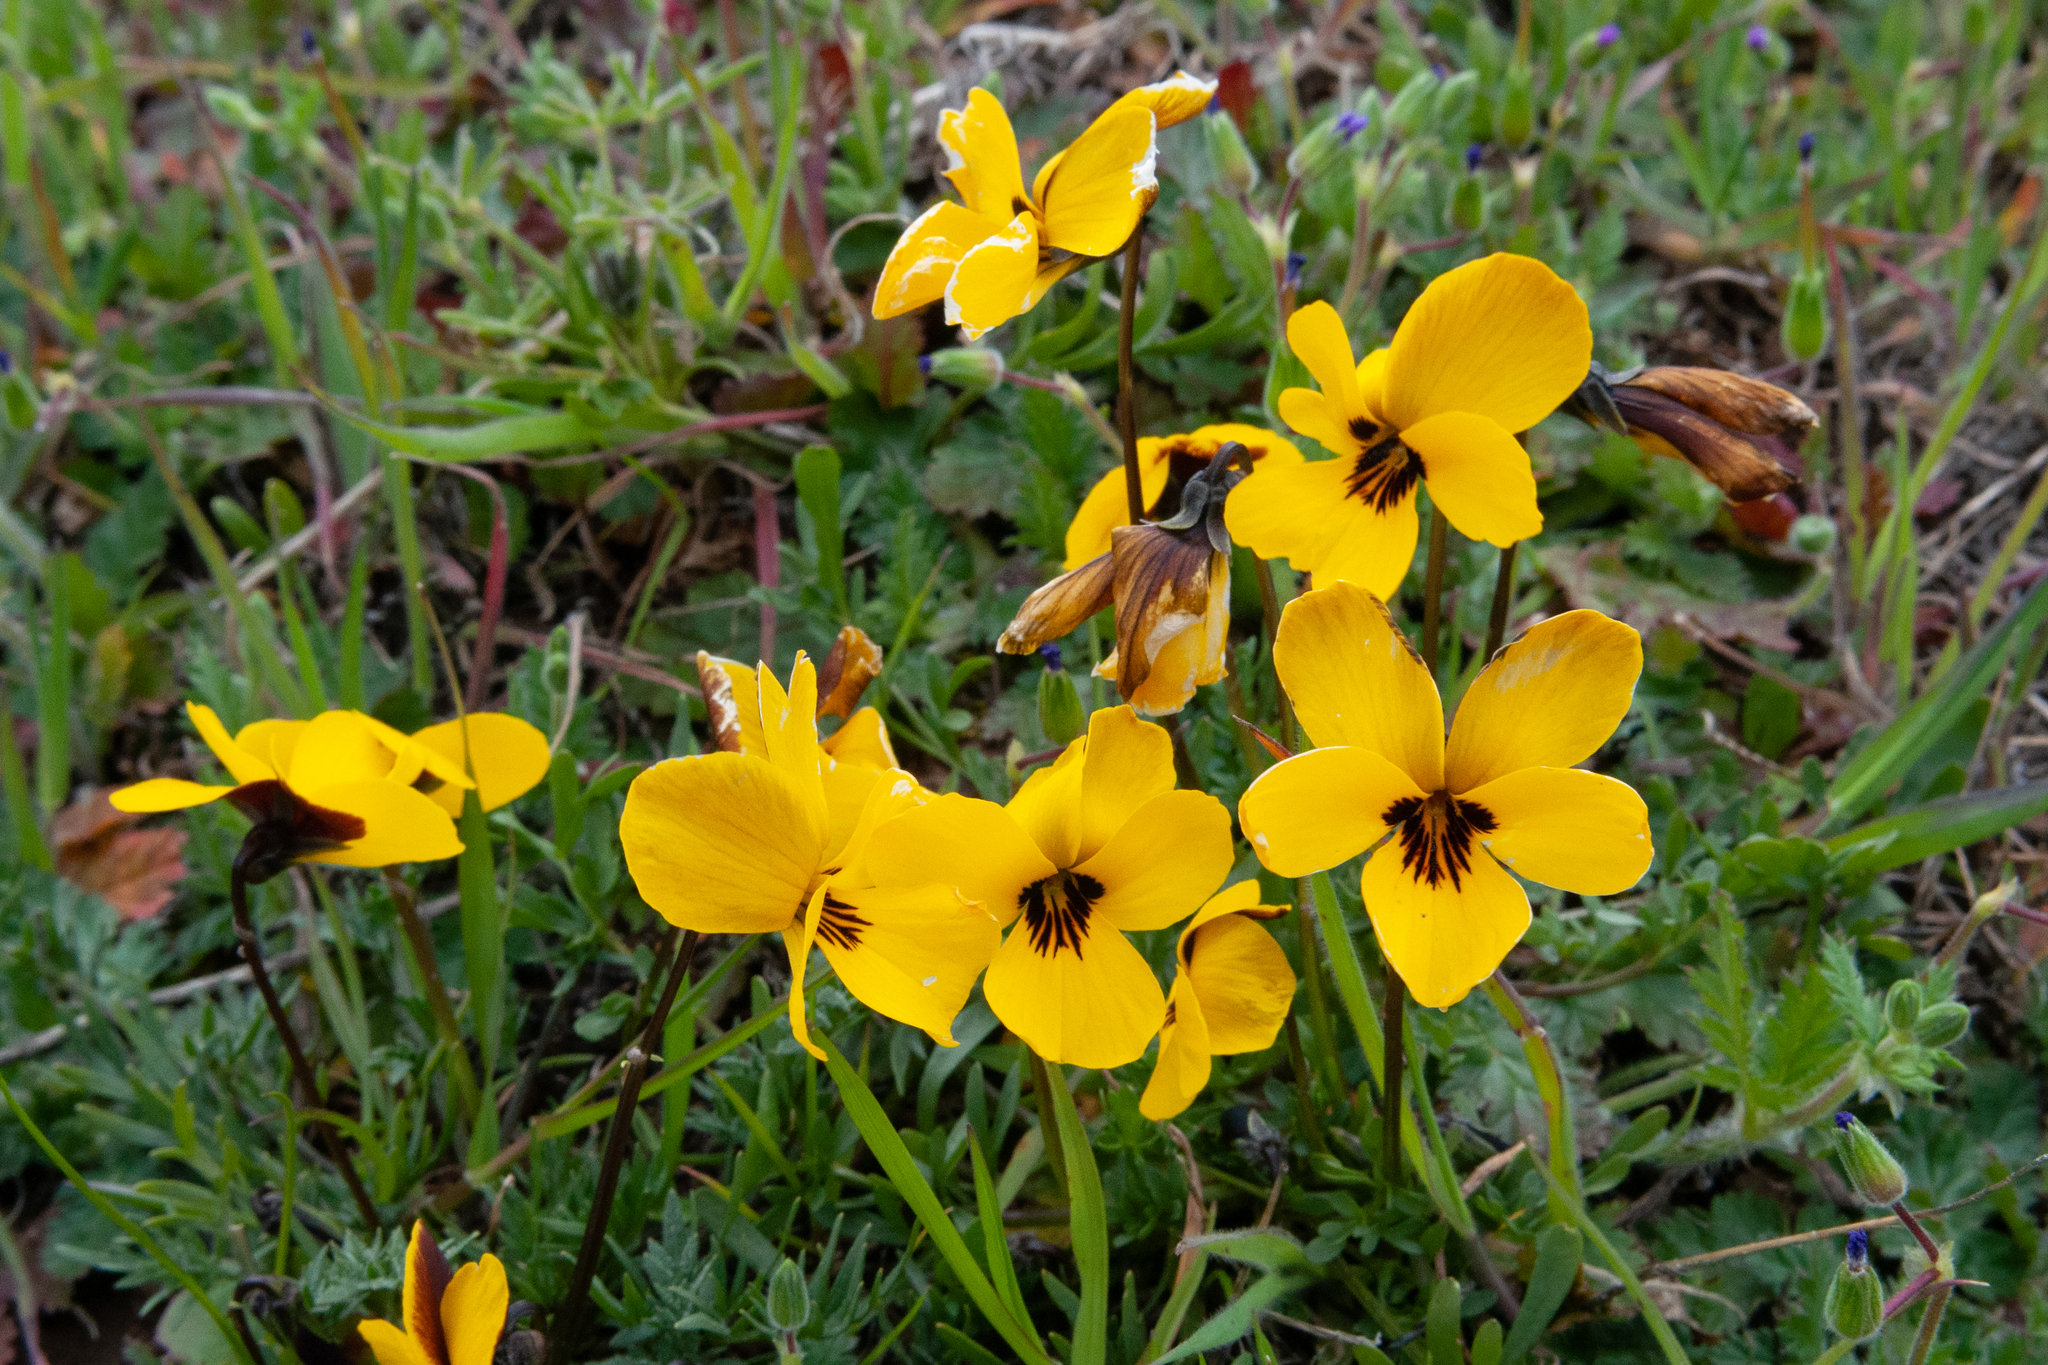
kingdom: Plantae
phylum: Tracheophyta
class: Magnoliopsida
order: Malpighiales
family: Violaceae
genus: Viola
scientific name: Viola douglasii
